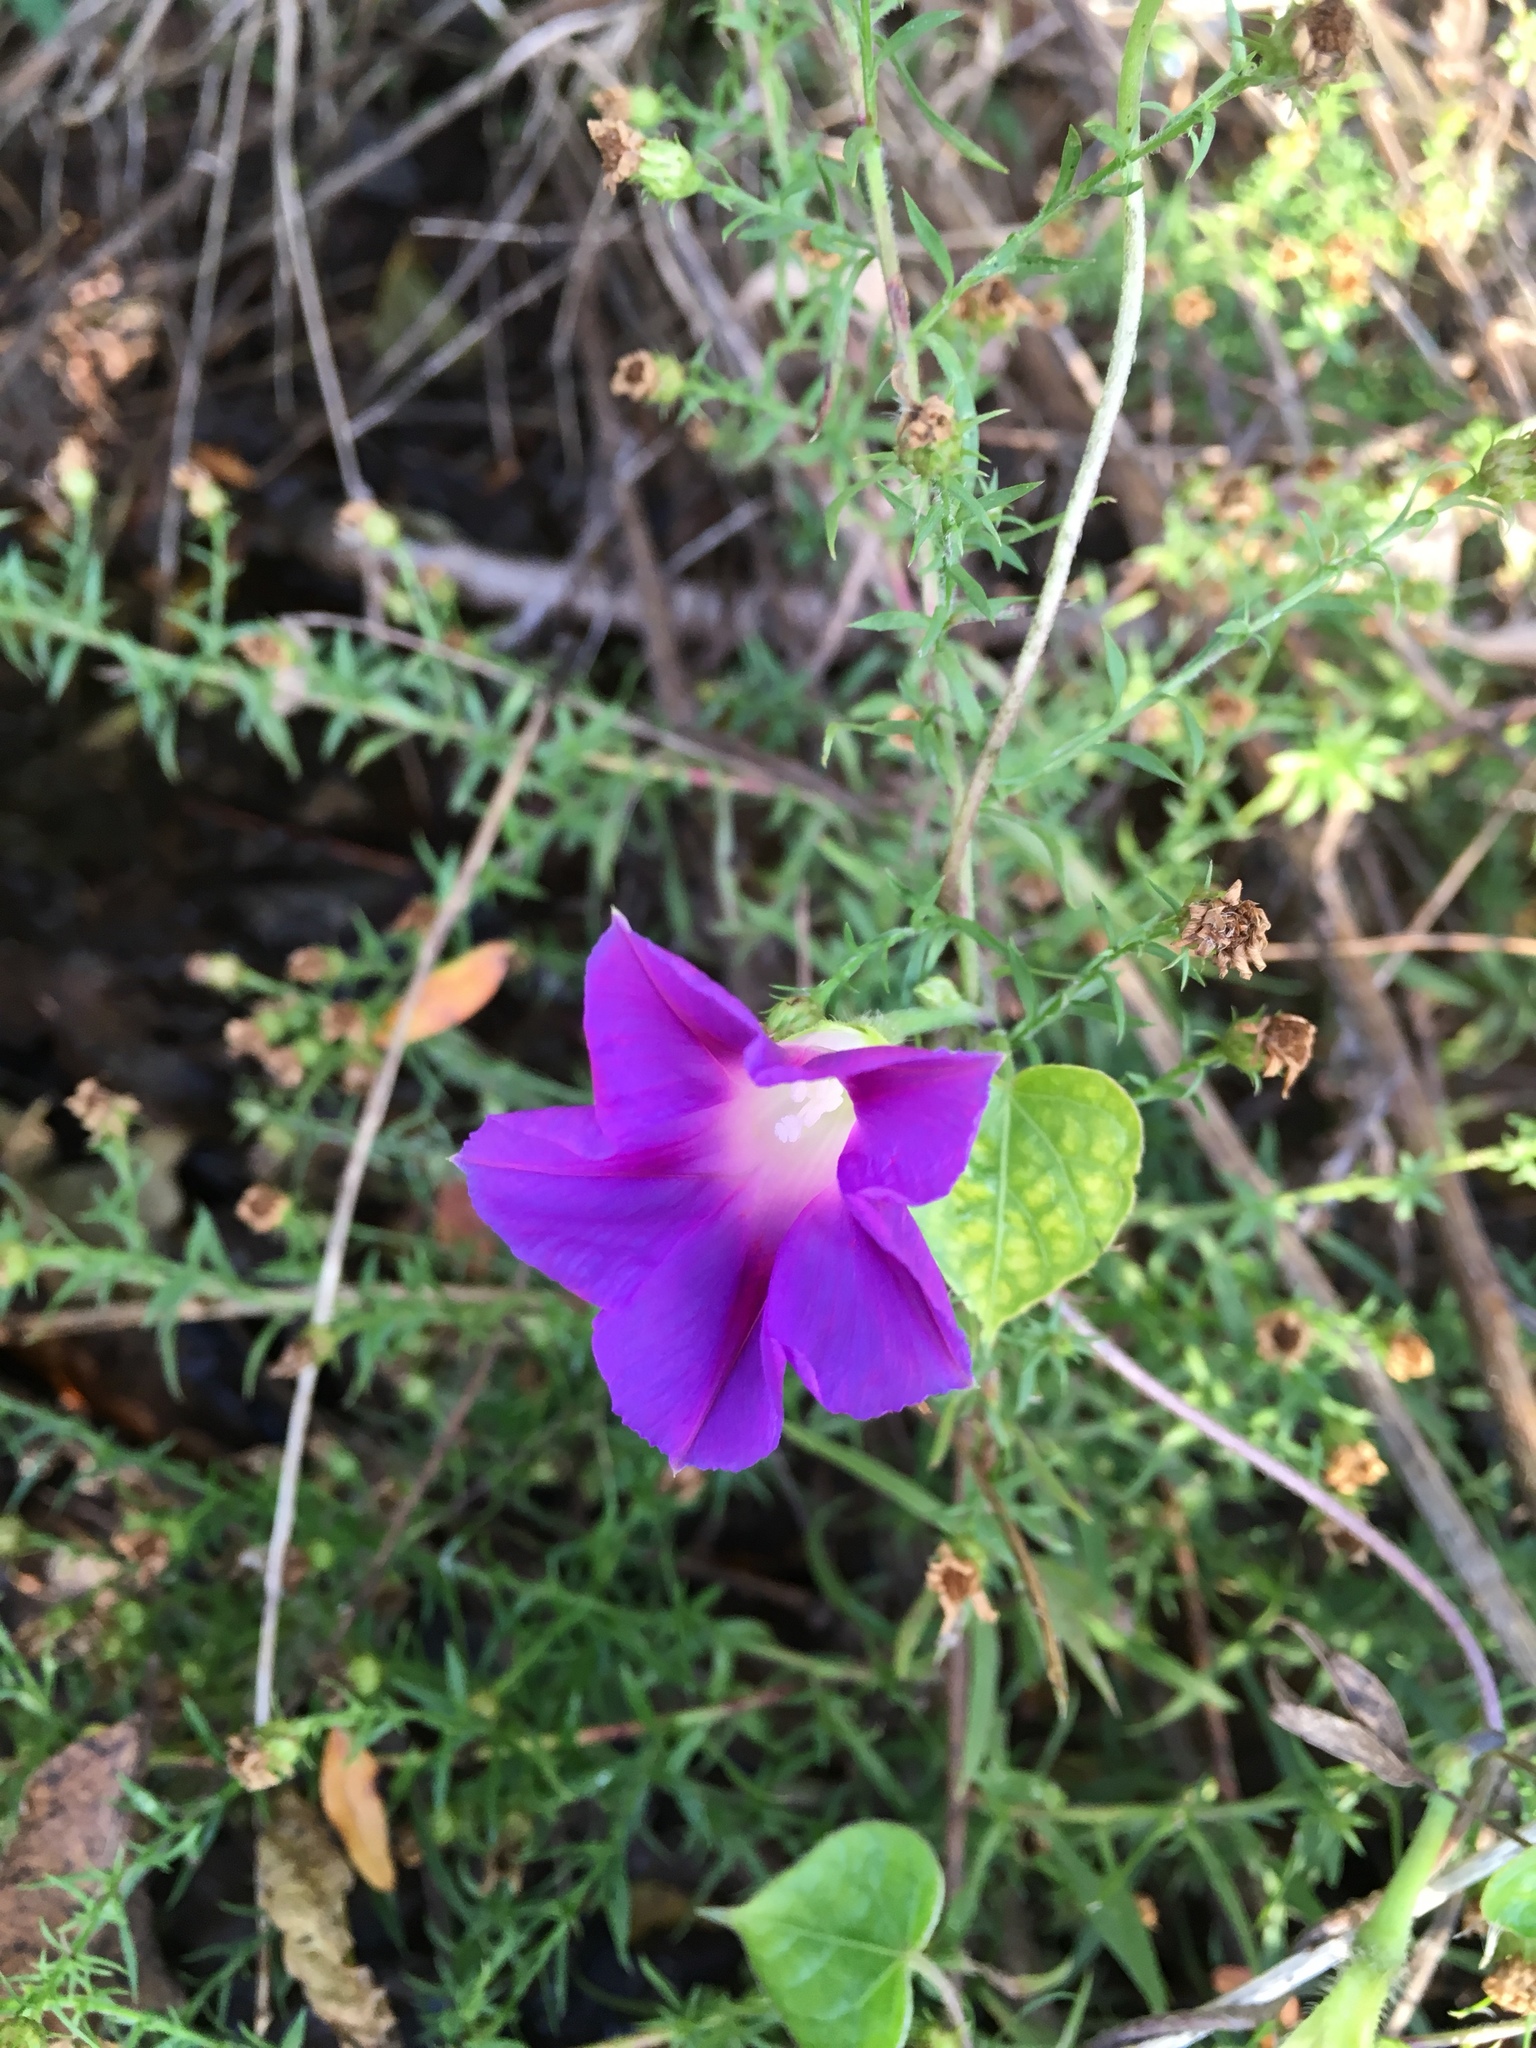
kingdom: Plantae
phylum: Tracheophyta
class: Magnoliopsida
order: Solanales
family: Convolvulaceae
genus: Ipomoea
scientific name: Ipomoea purpurea
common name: Common morning-glory
